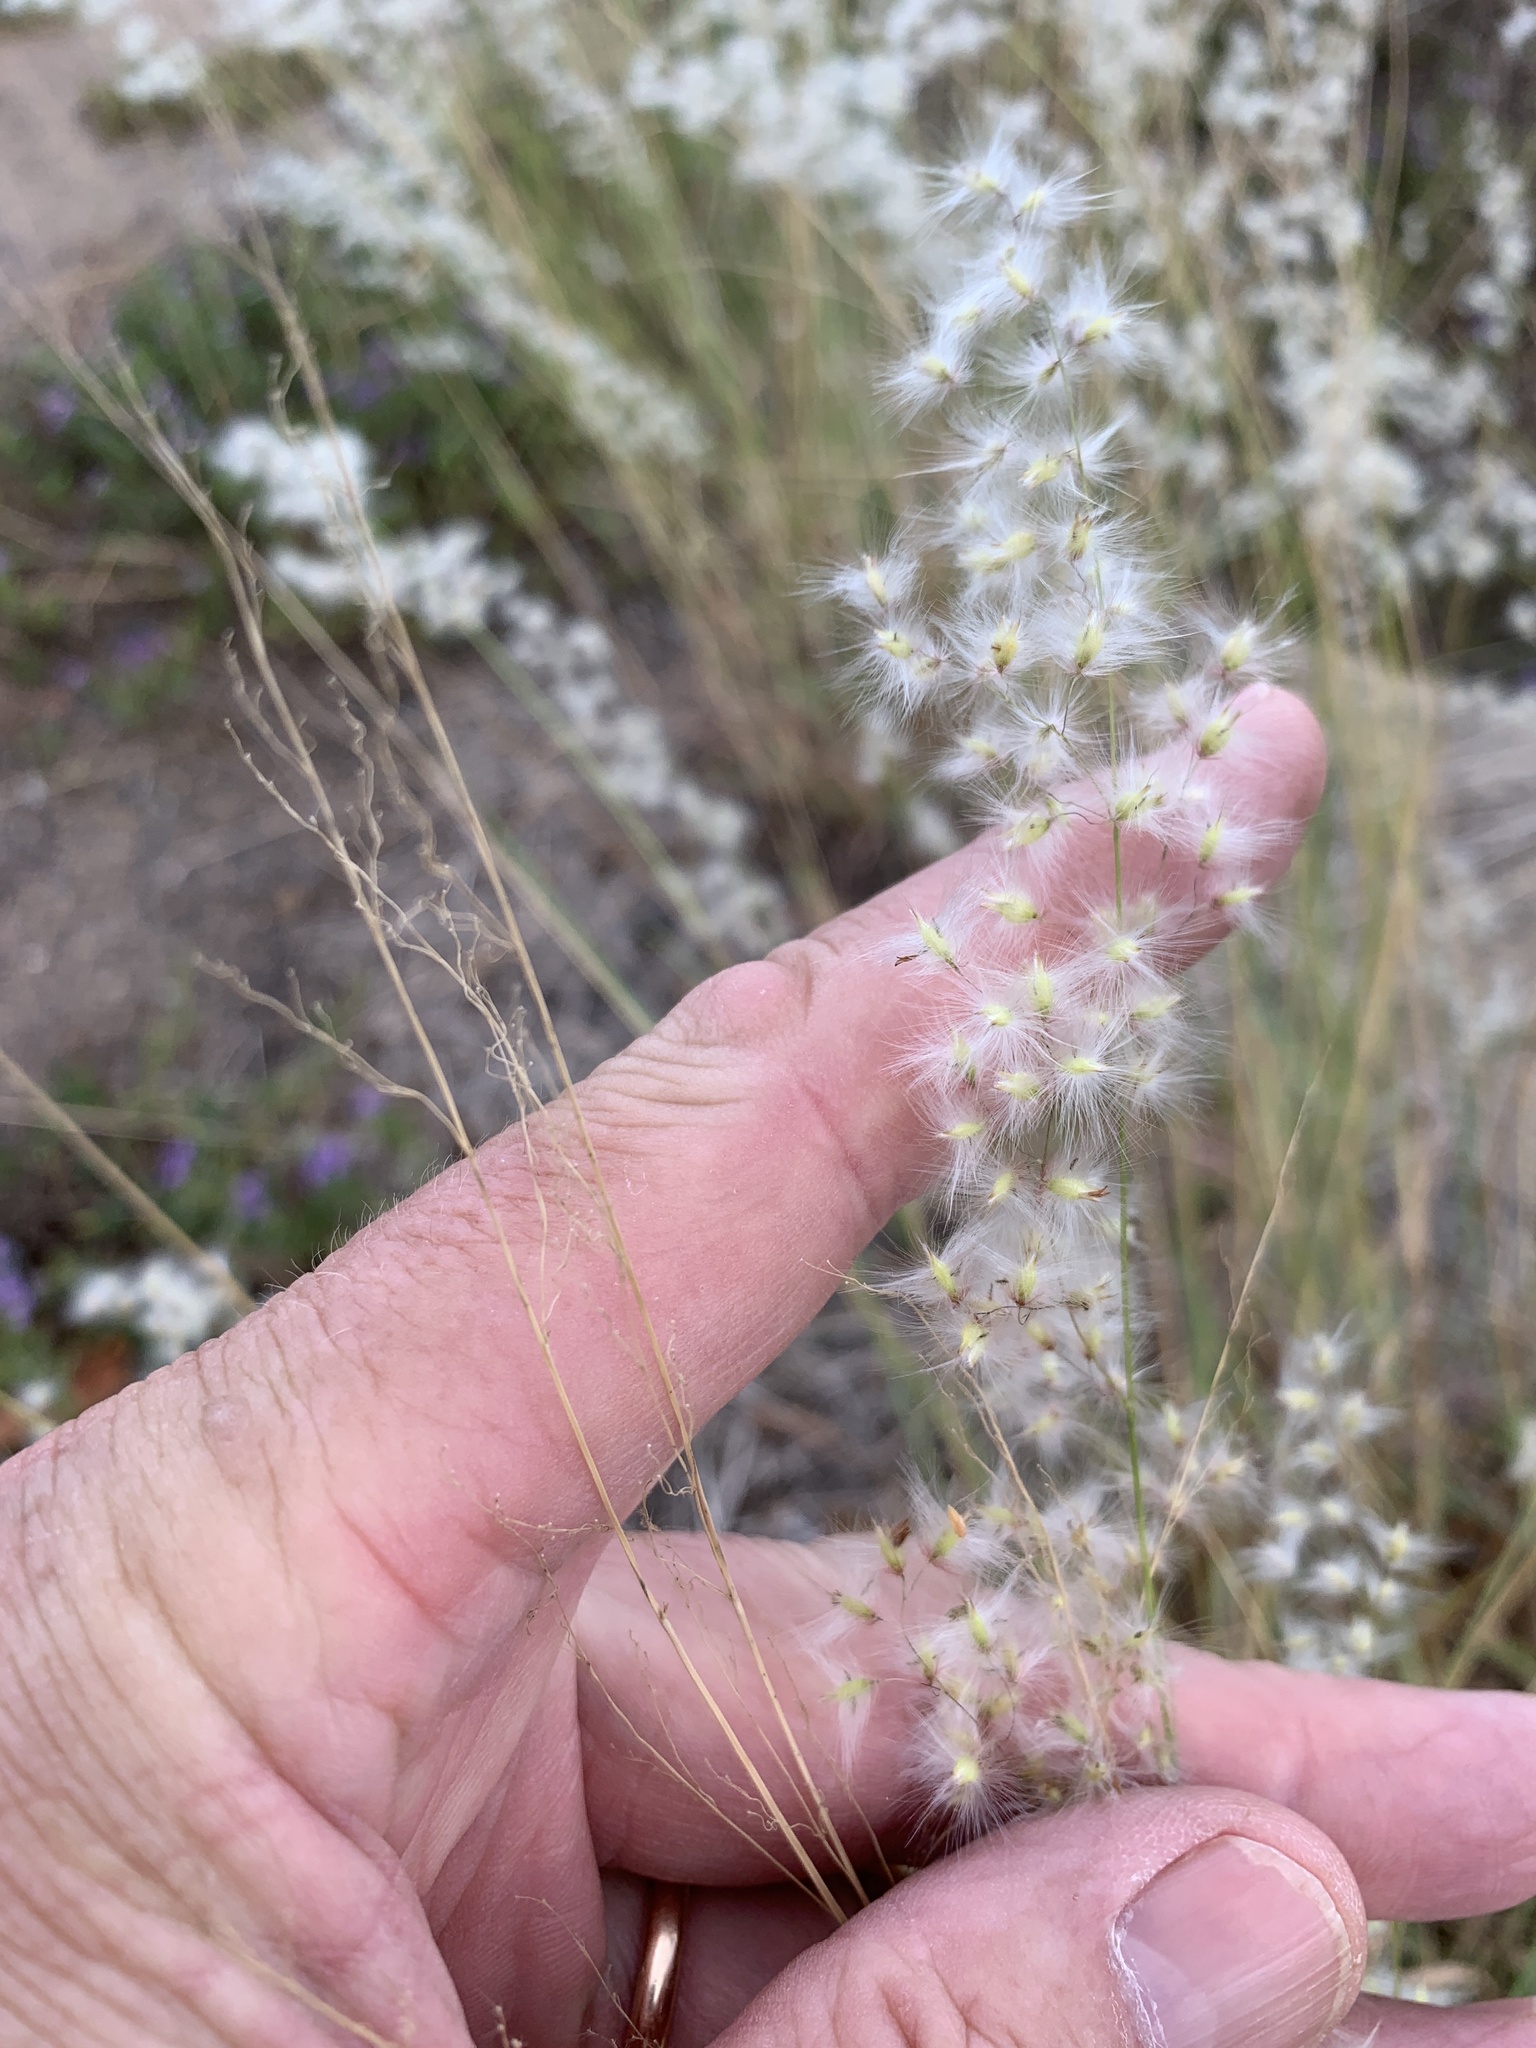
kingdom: Plantae
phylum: Tracheophyta
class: Liliopsida
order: Poales
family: Poaceae
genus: Melinis
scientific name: Melinis repens
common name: Rose natal grass
